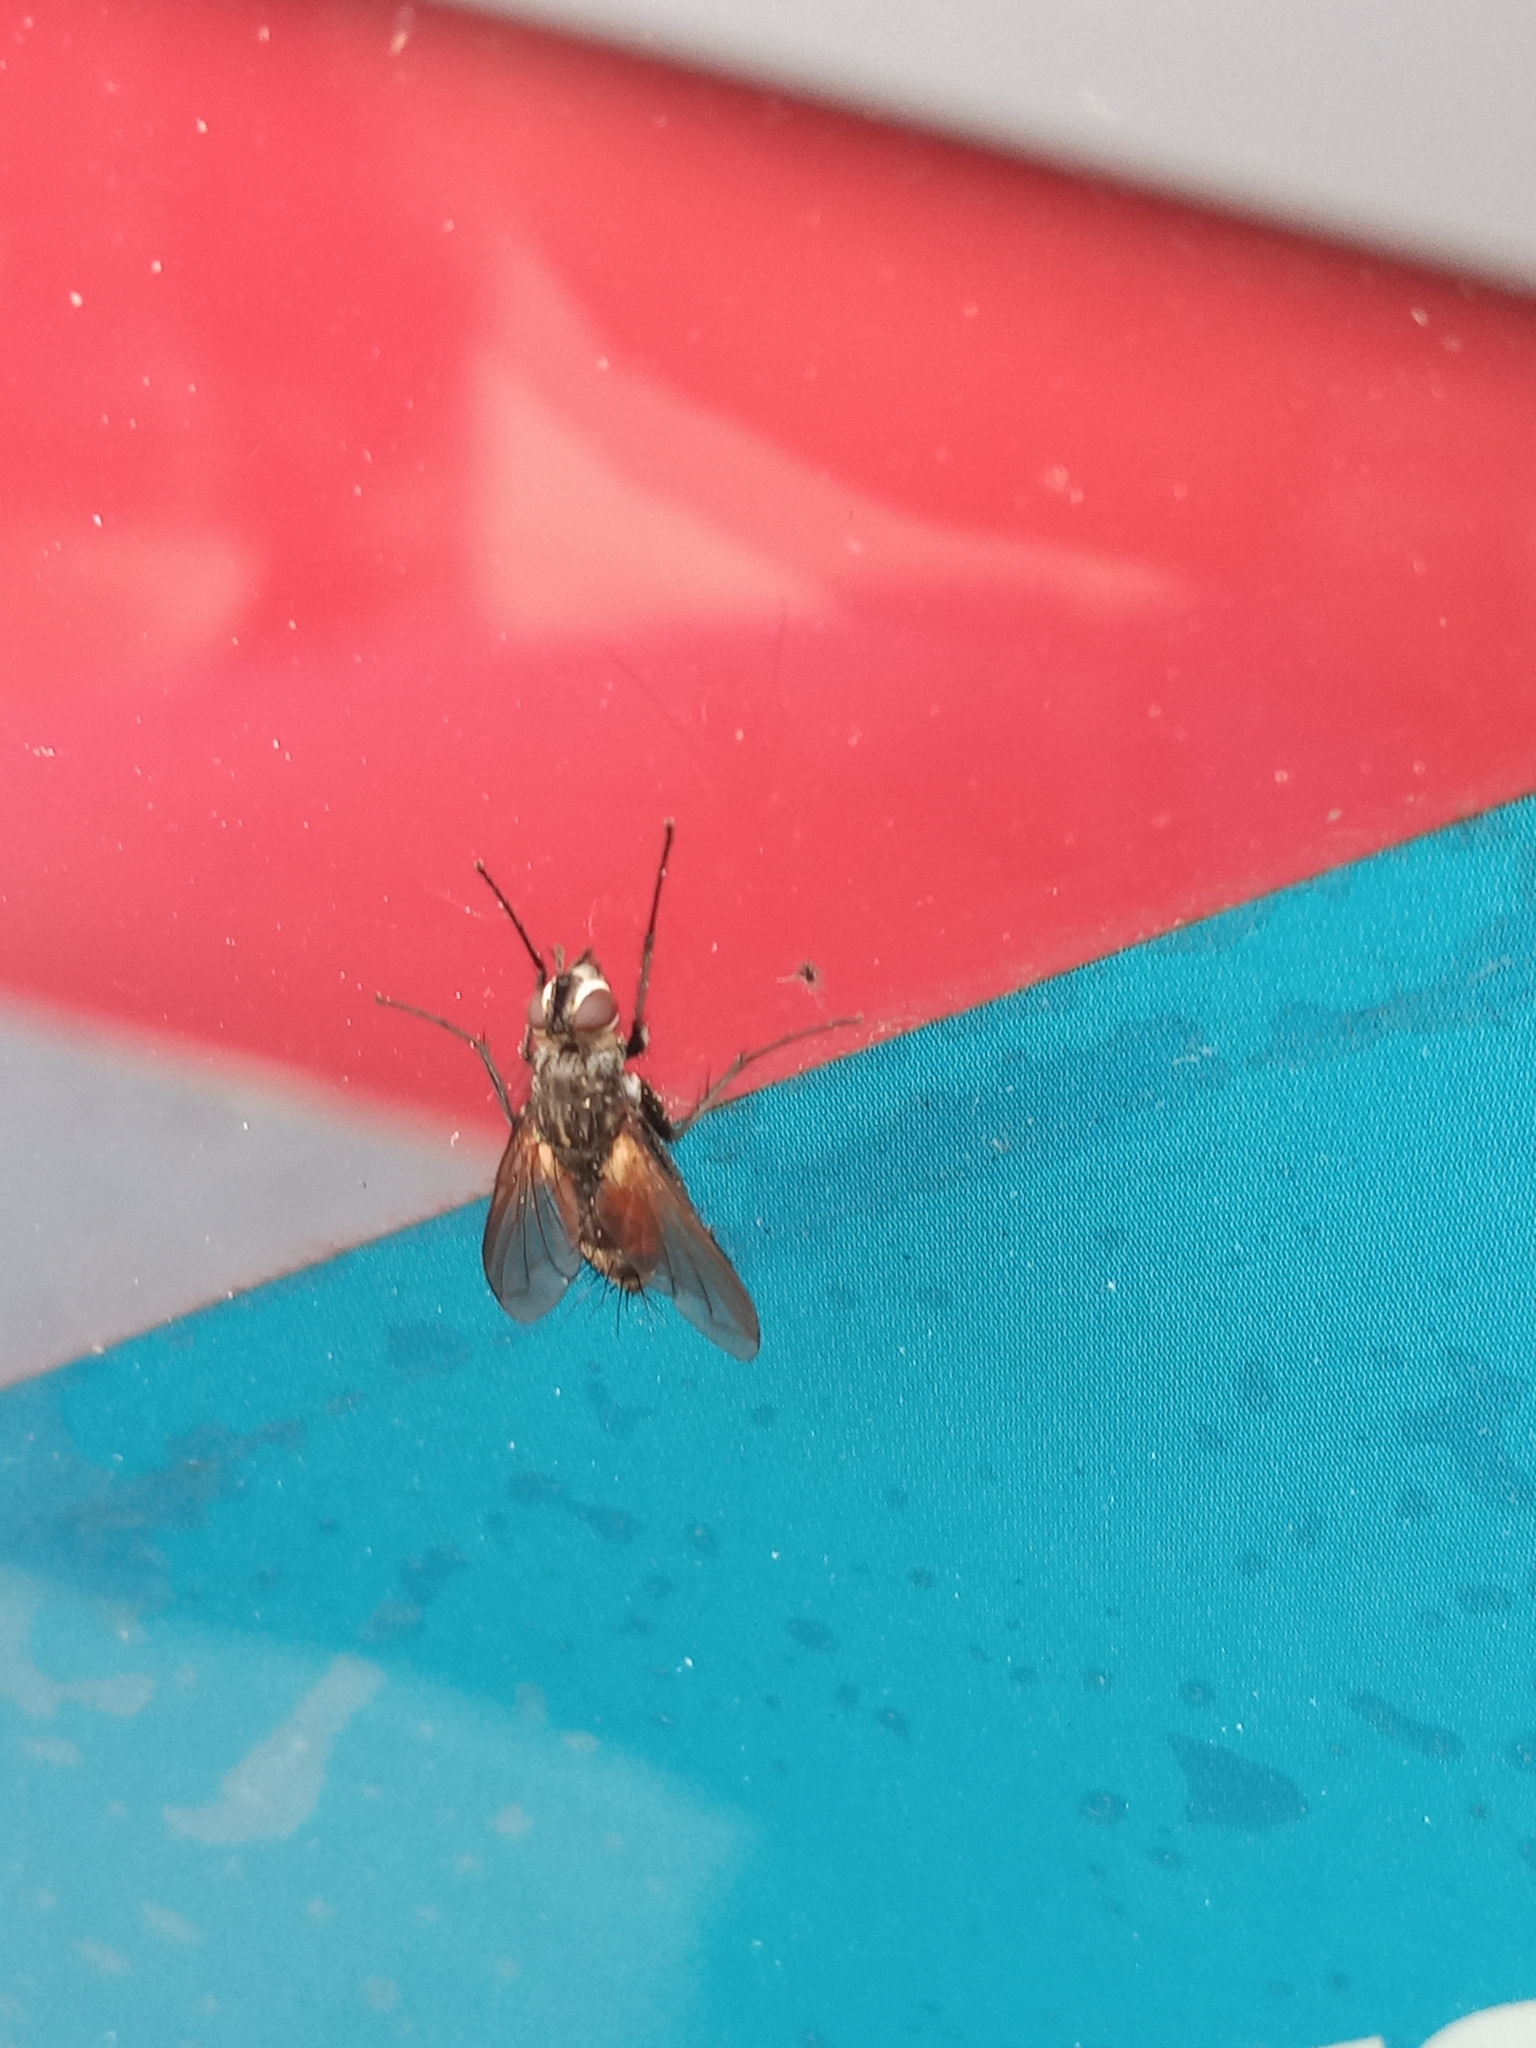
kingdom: Animalia
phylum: Arthropoda
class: Insecta
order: Diptera
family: Tachinidae
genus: Eriothrix
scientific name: Eriothrix rufomaculatus
